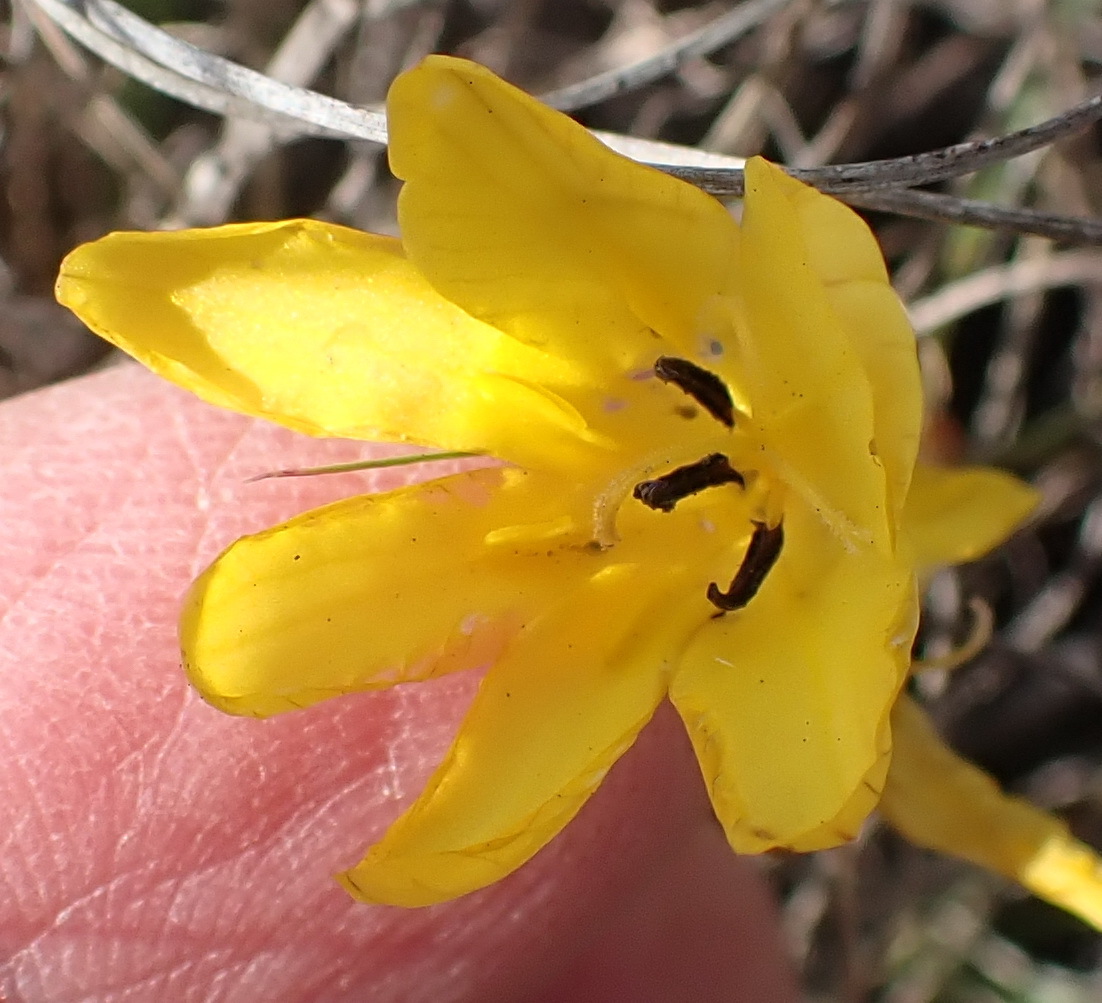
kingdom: Plantae
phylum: Tracheophyta
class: Liliopsida
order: Asparagales
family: Iridaceae
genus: Tritonia
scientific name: Tritonia chrysantha
